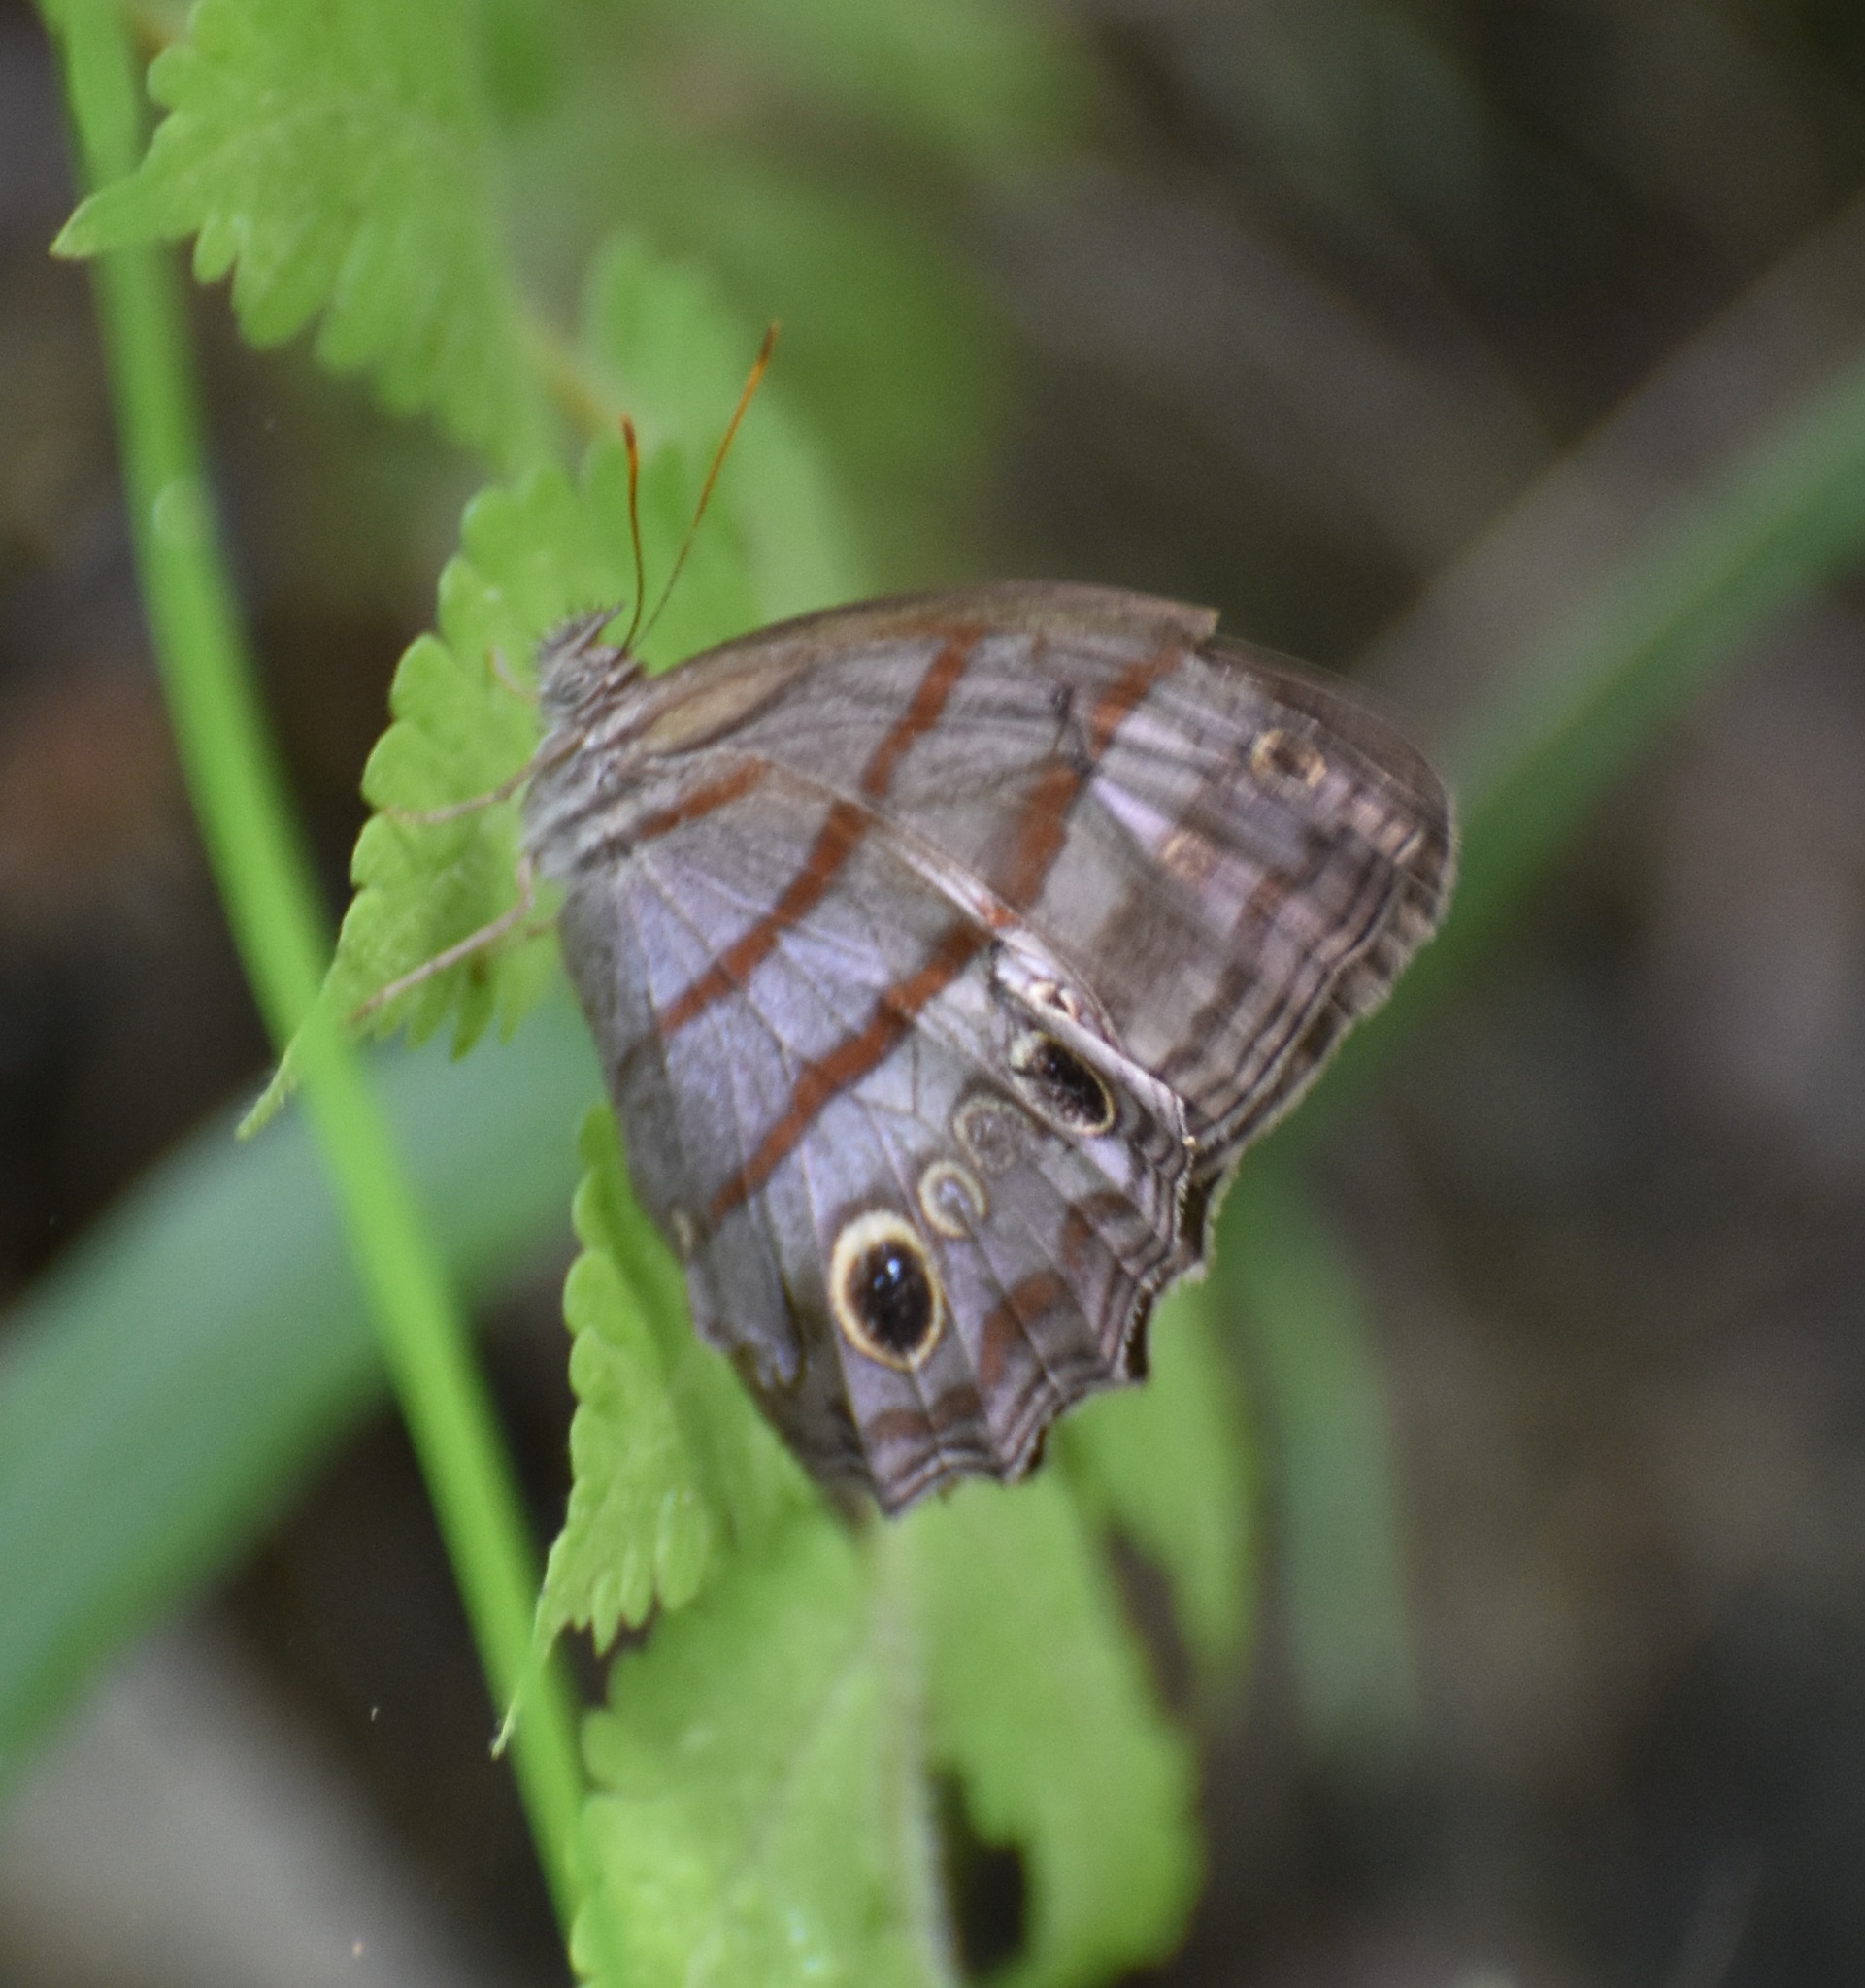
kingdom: Animalia
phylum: Arthropoda
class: Insecta
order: Lepidoptera
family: Nymphalidae
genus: Magneuptychia
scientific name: Magneuptychia libye
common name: Blue-gray satyr
